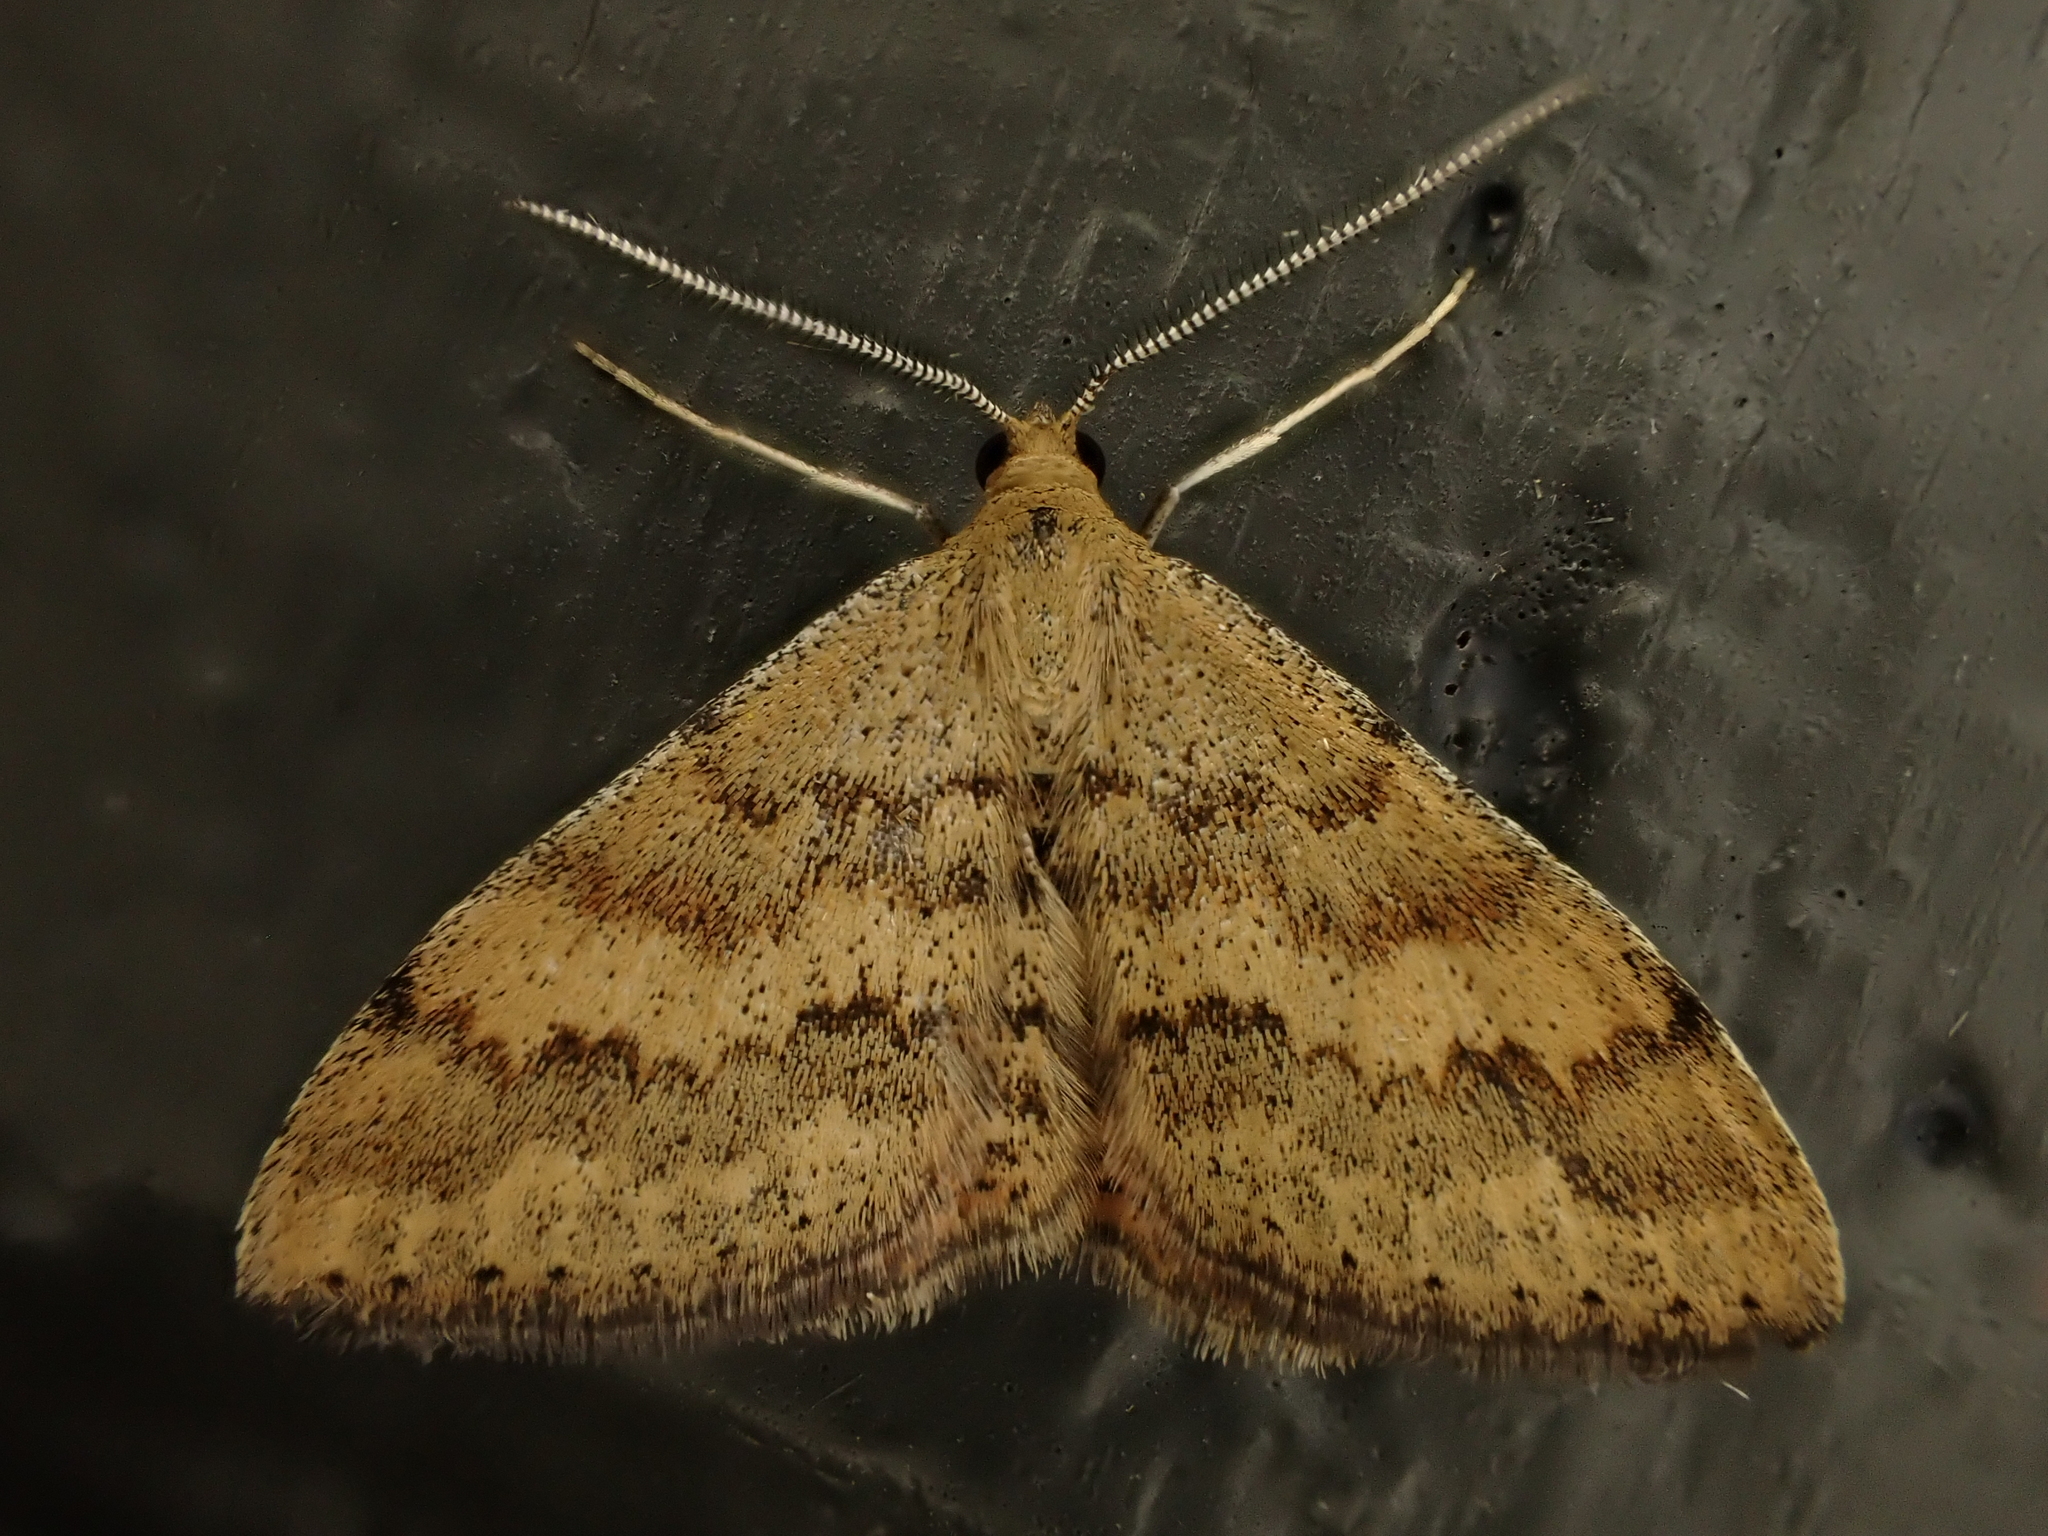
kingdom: Animalia
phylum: Arthropoda
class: Insecta
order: Lepidoptera
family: Geometridae
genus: Scopula
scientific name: Scopula rubraria
